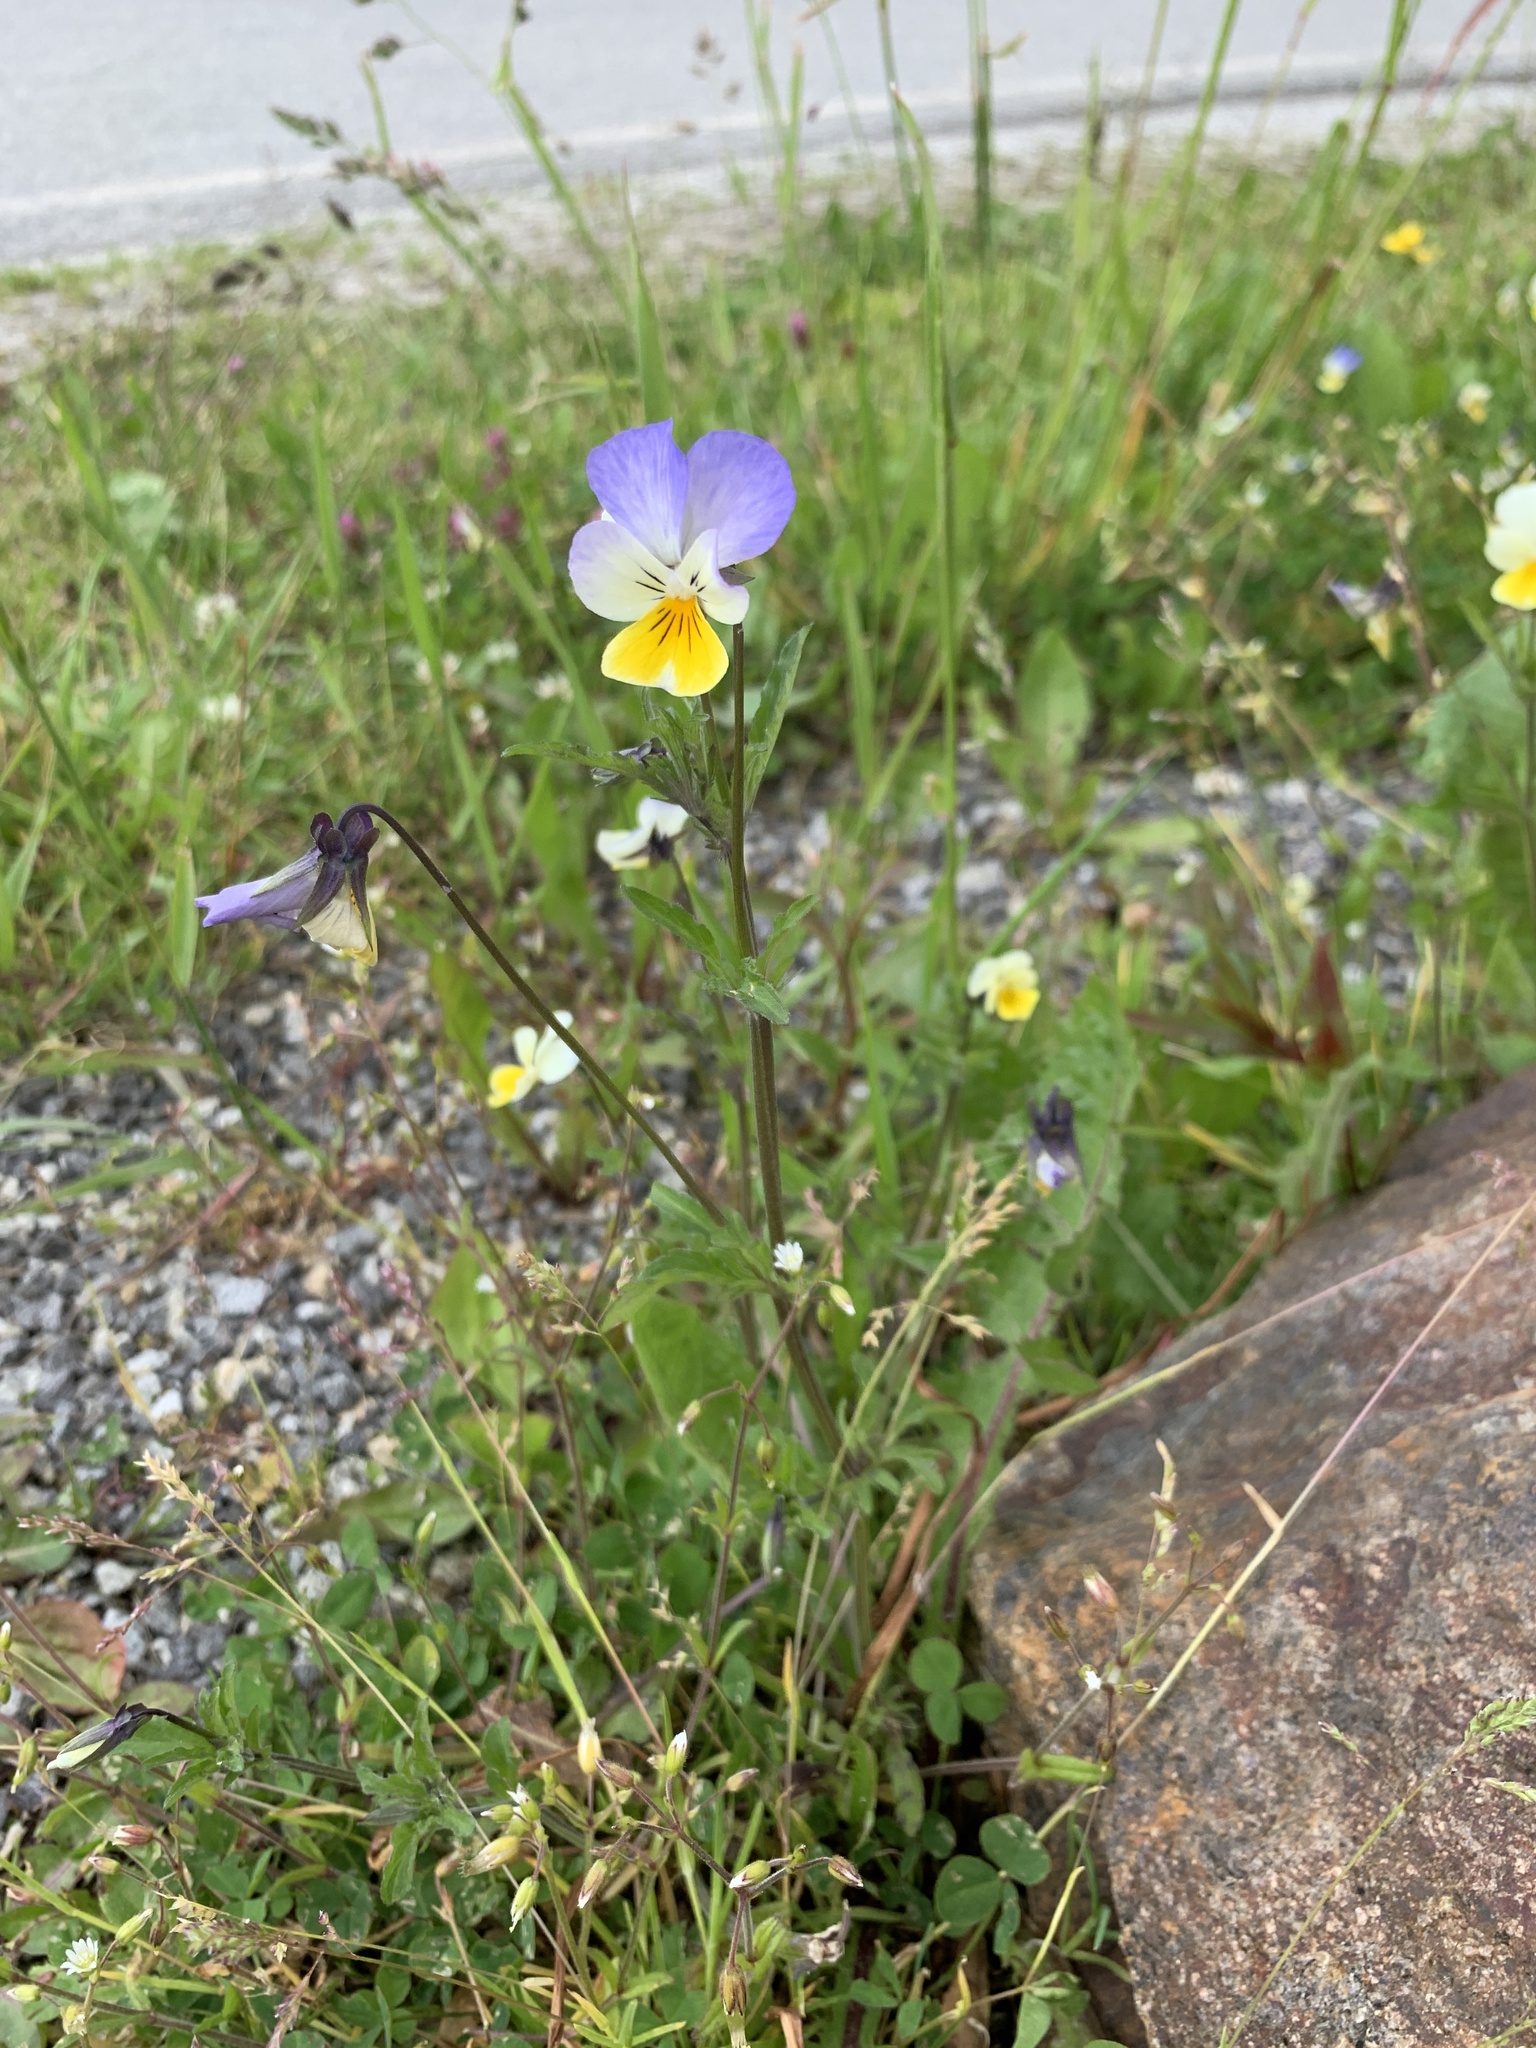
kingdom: Plantae
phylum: Tracheophyta
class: Magnoliopsida
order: Malpighiales
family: Violaceae
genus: Viola
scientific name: Viola tricolor
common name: Pansy
